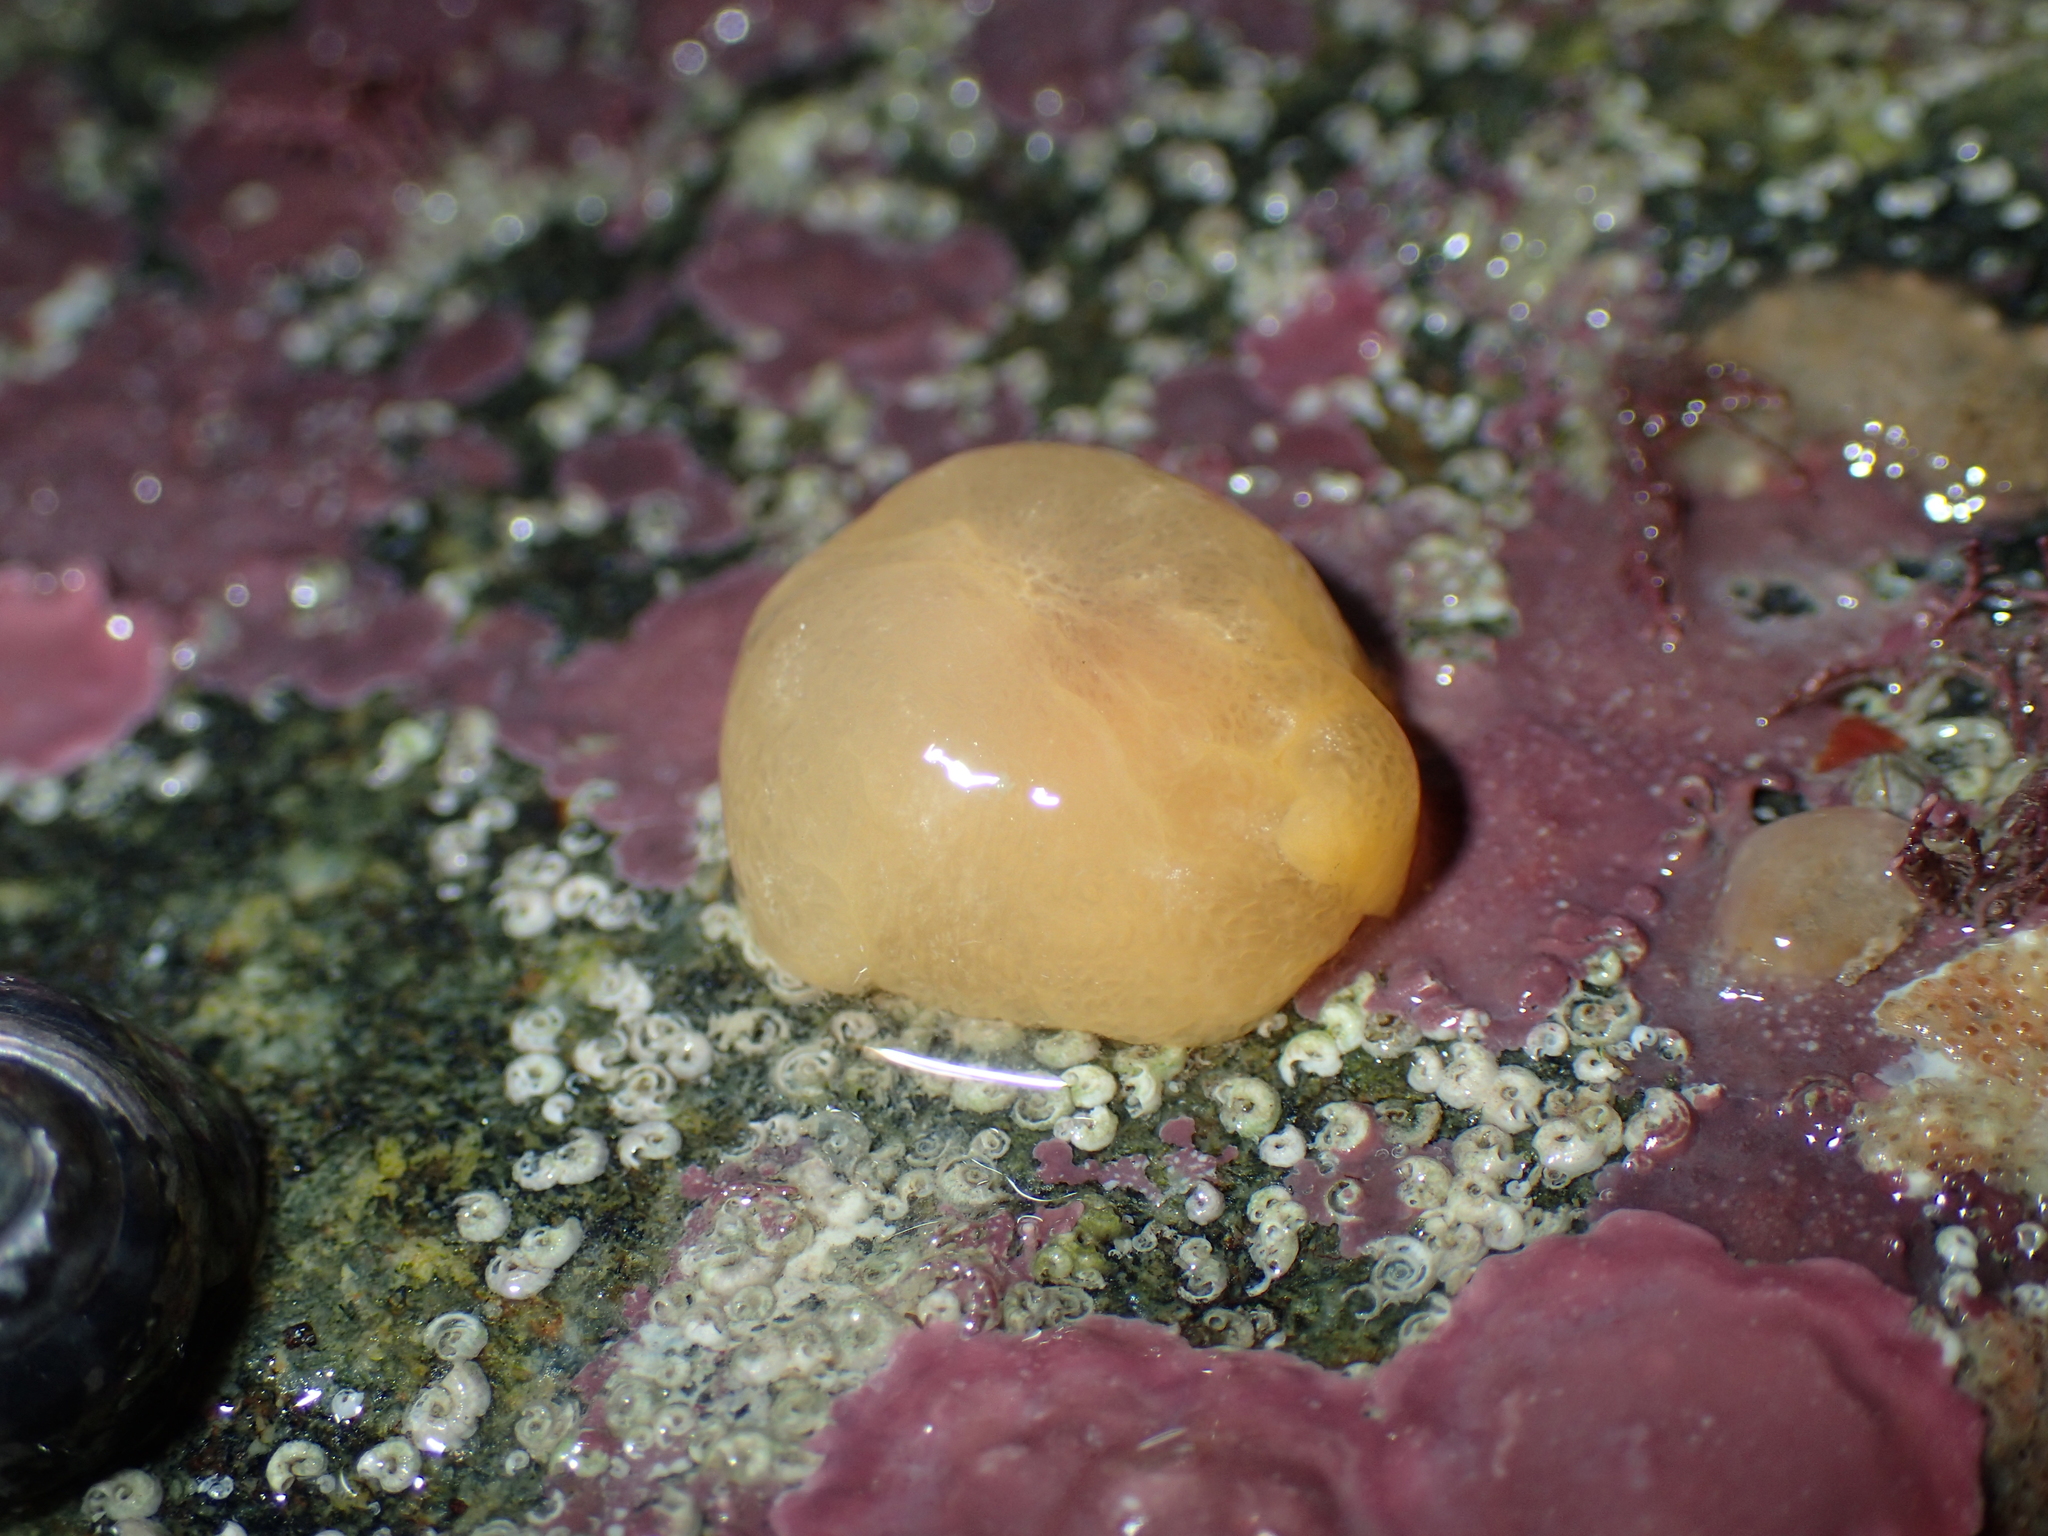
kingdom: Animalia
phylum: Mollusca
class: Gastropoda
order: Pleurobranchida
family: Pleurobranchidae
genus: Berthella
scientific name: Berthella plumula
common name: Yellow-plumed sea slug
